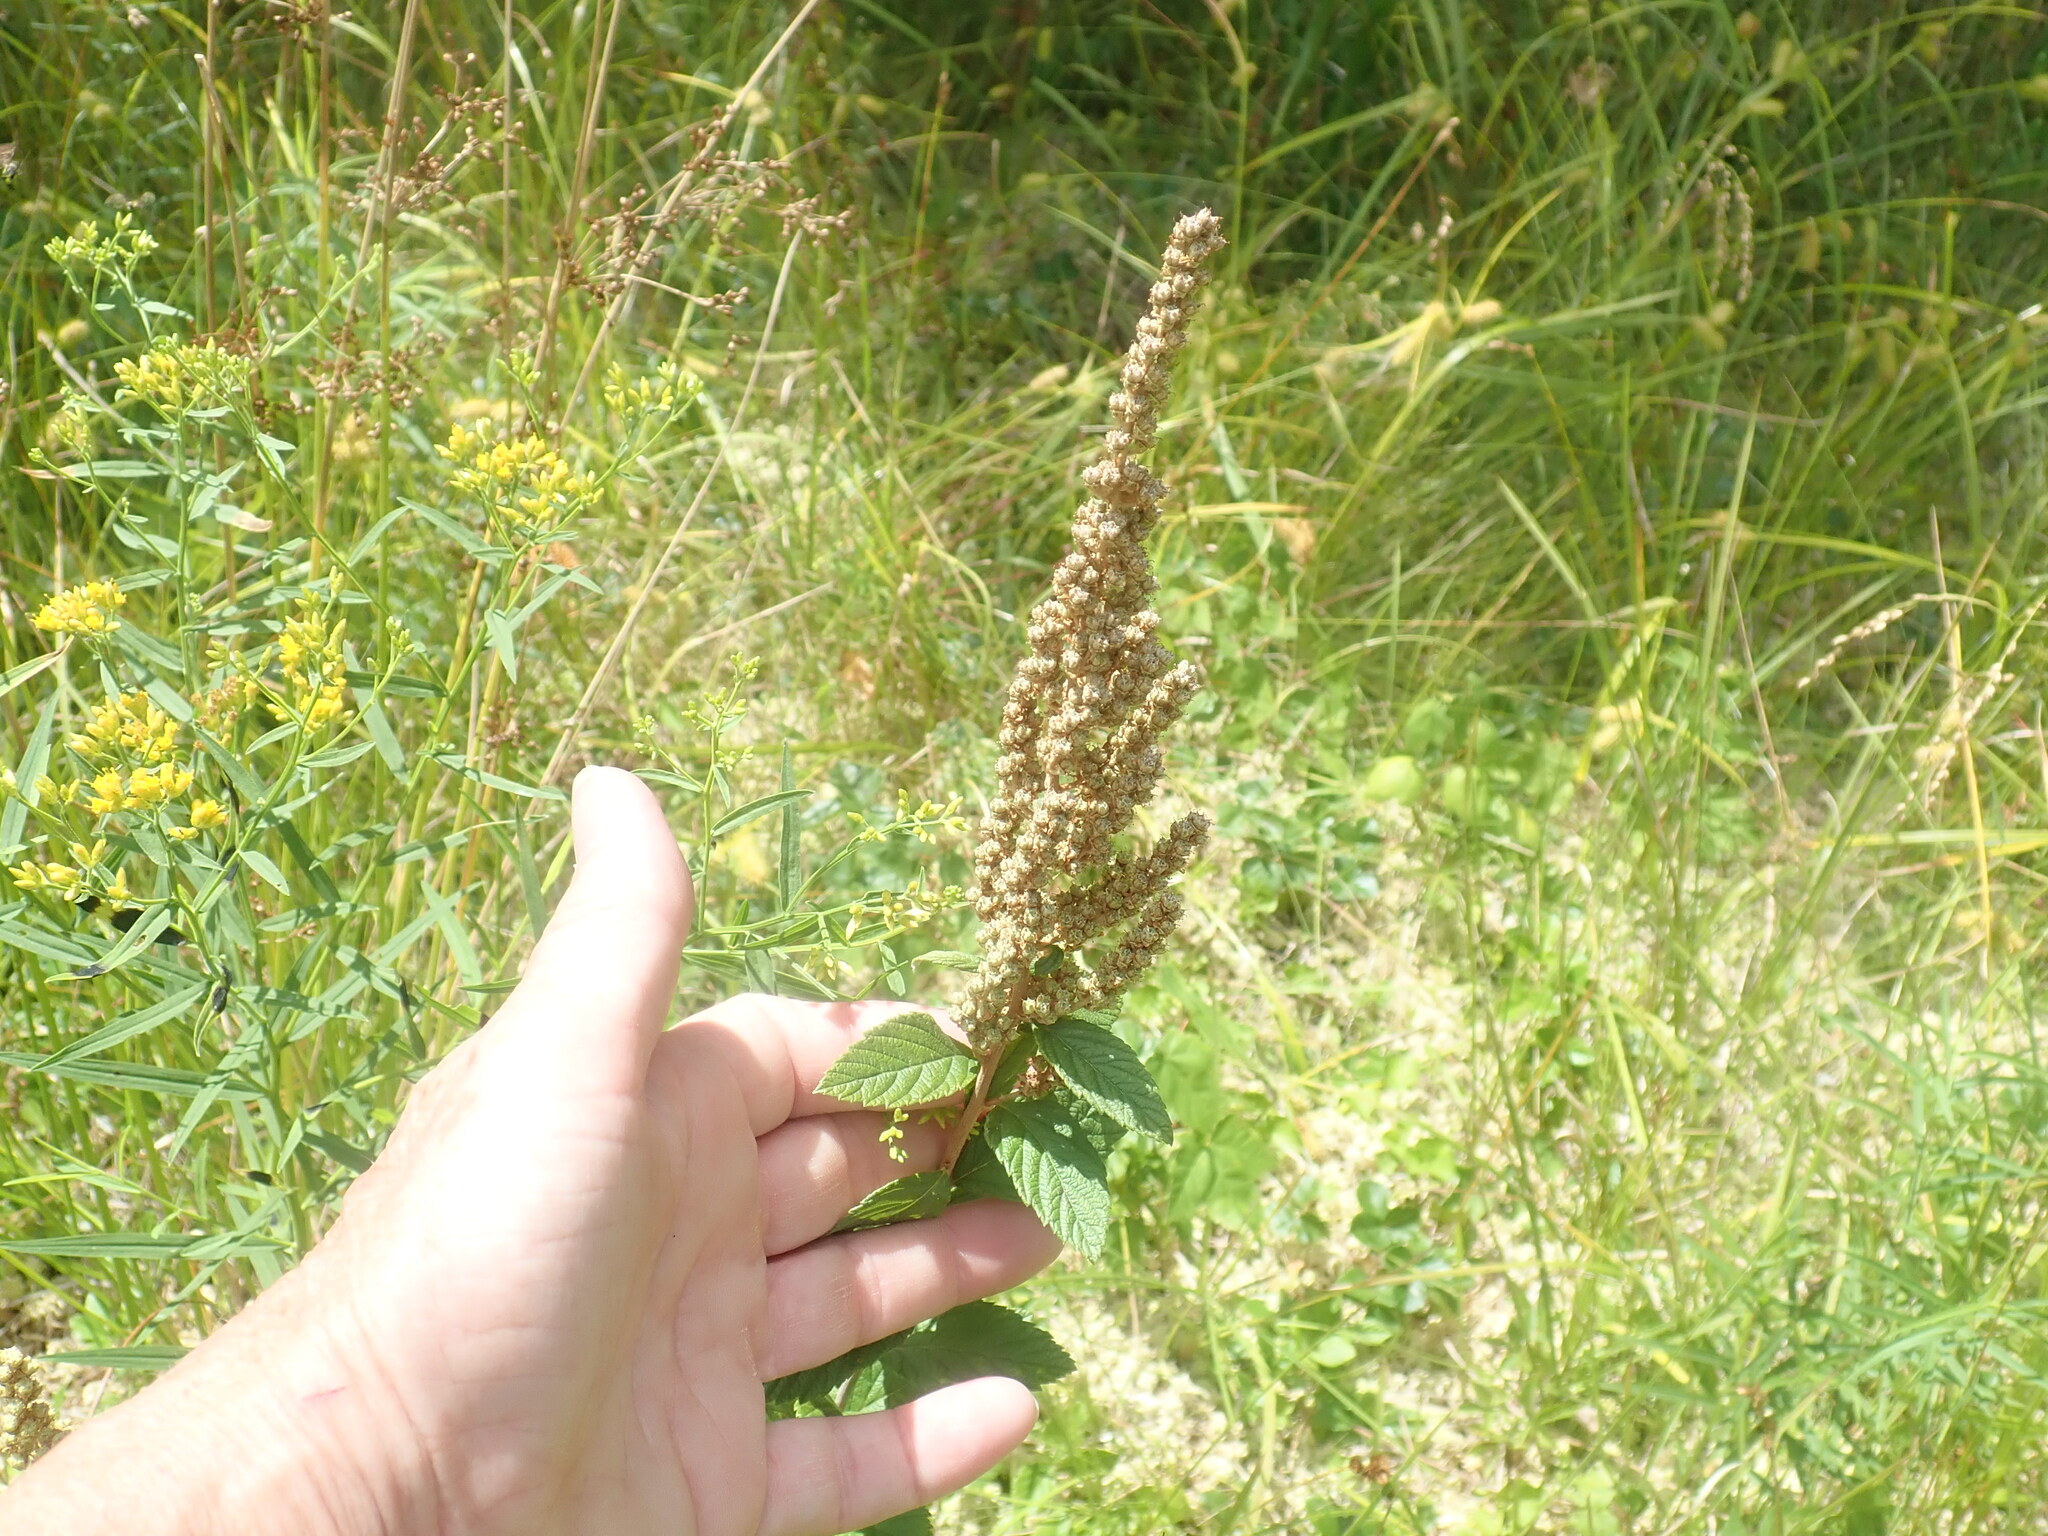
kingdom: Plantae
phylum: Tracheophyta
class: Magnoliopsida
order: Rosales
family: Rosaceae
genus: Spiraea
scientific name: Spiraea tomentosa
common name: Hardhack
